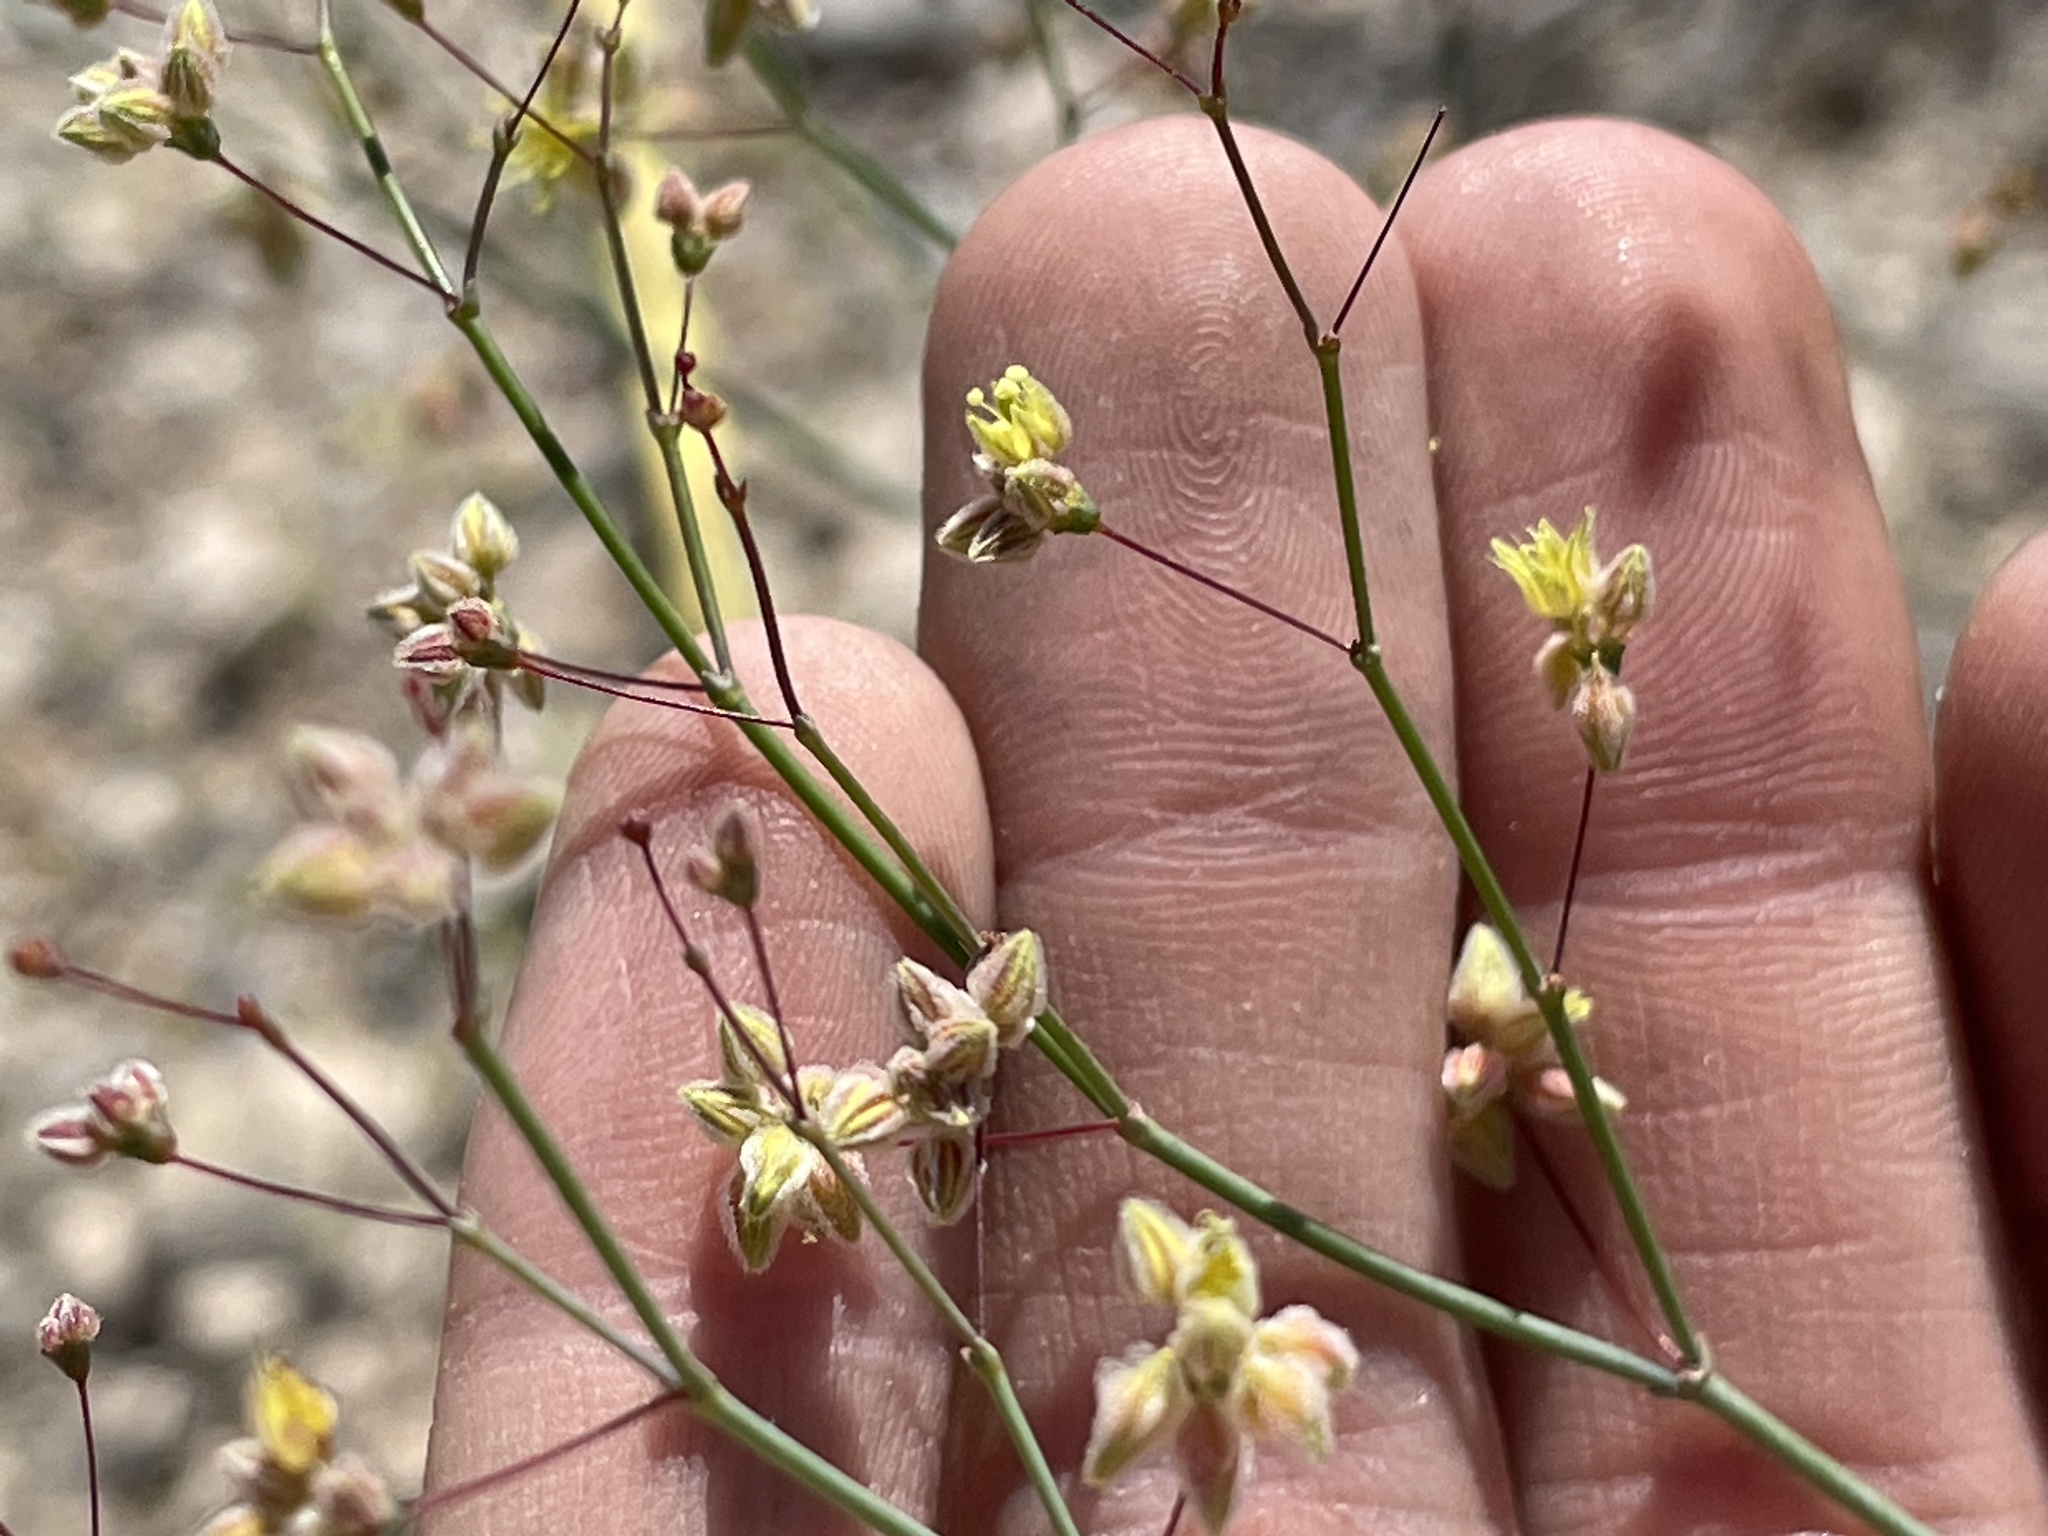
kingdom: Plantae
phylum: Tracheophyta
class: Magnoliopsida
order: Caryophyllales
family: Polygonaceae
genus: Eriogonum
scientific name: Eriogonum inflatum
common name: Desert trumpet
